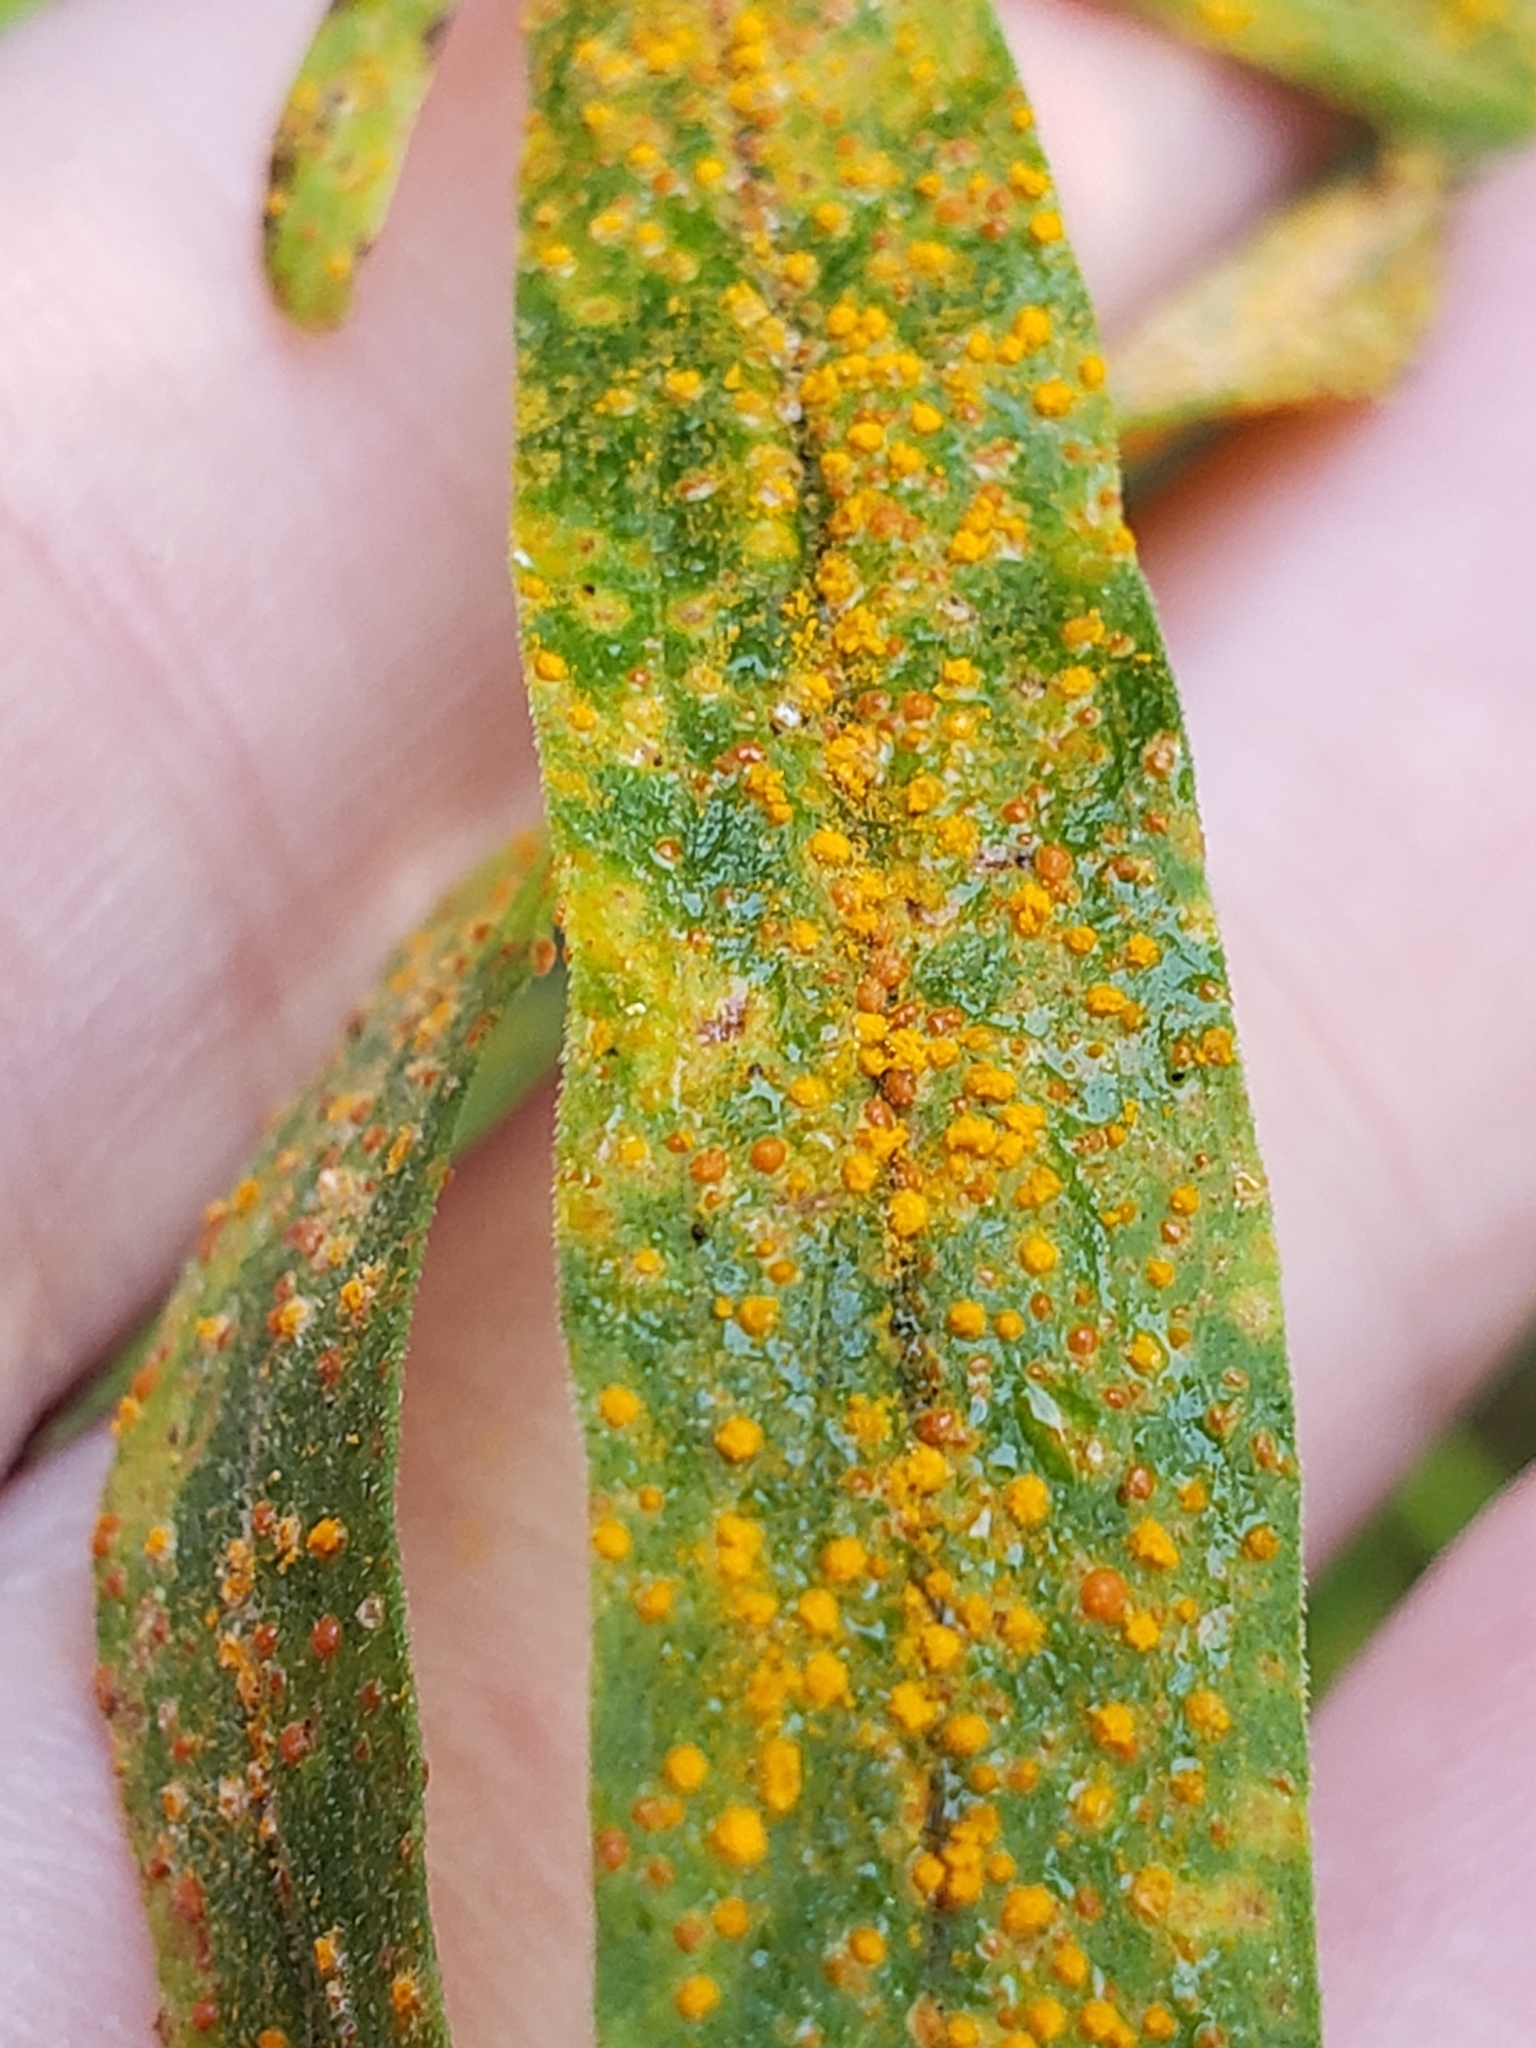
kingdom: Fungi
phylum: Basidiomycota
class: Pucciniomycetes
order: Pucciniales
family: Coleosporiaceae
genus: Coleosporium
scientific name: Coleosporium asterum
